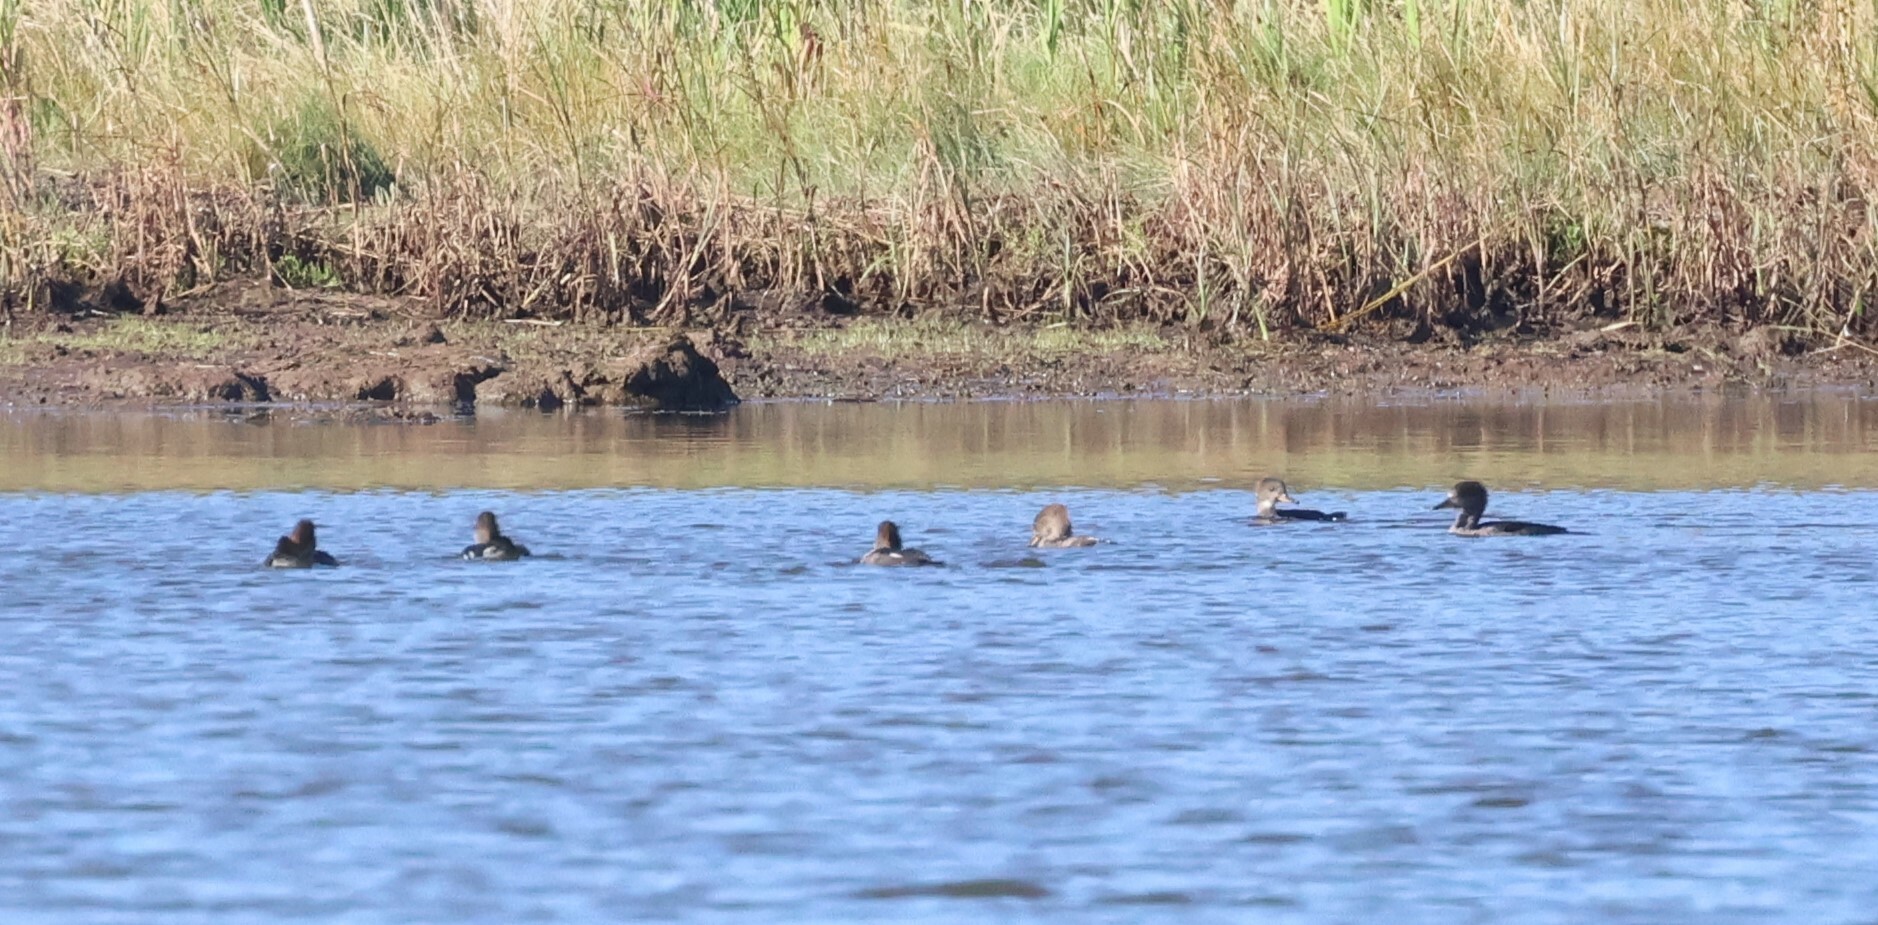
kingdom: Animalia
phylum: Chordata
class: Aves
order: Anseriformes
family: Anatidae
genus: Lophodytes
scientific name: Lophodytes cucullatus
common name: Hooded merganser
